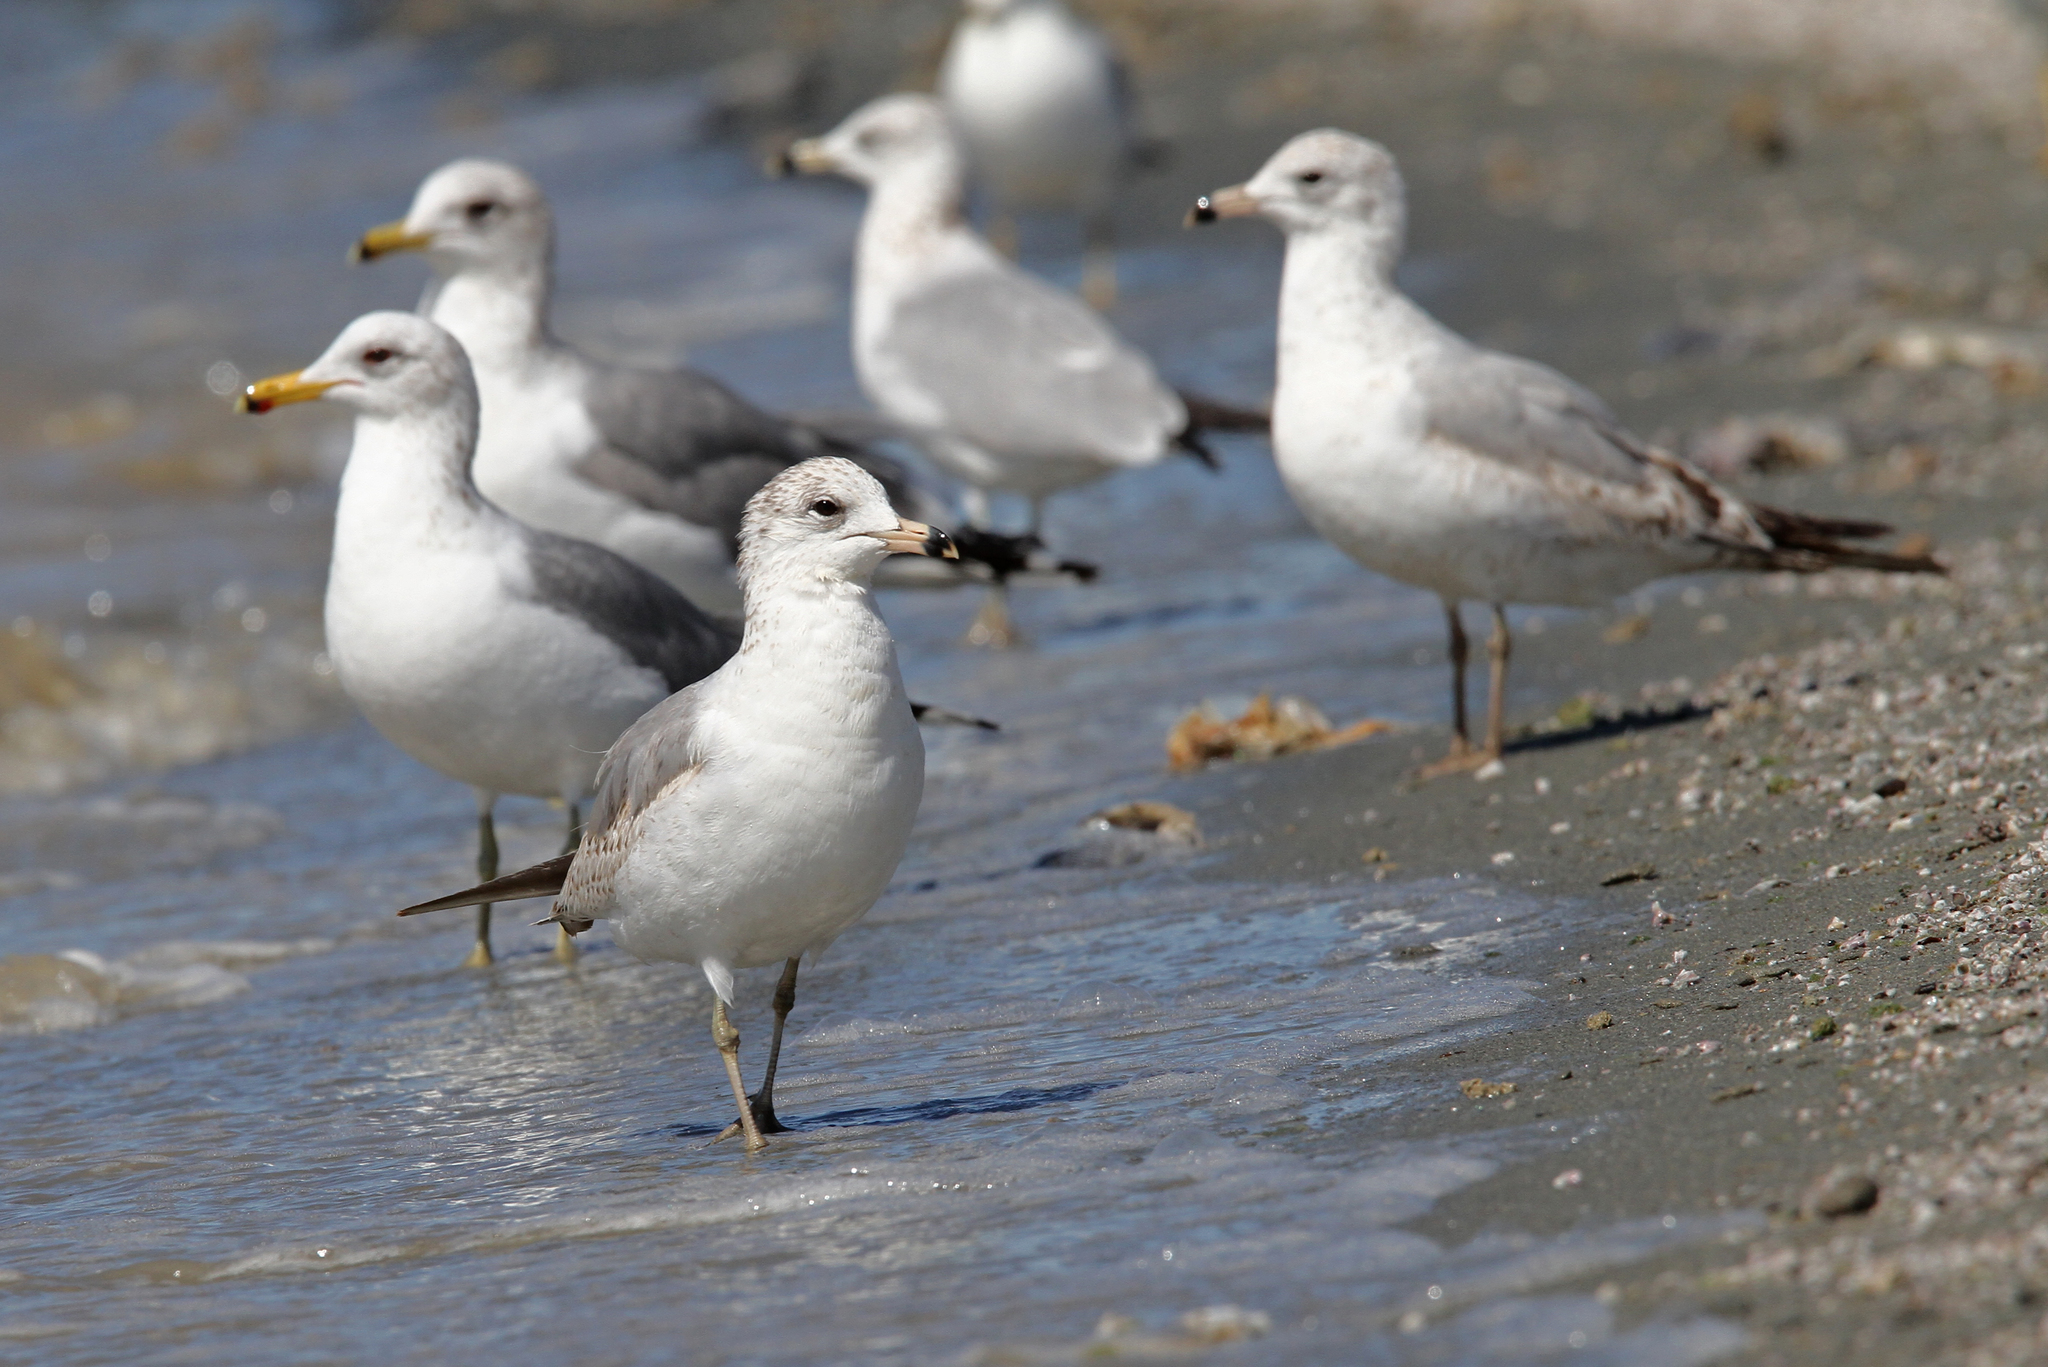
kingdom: Animalia
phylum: Chordata
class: Aves
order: Charadriiformes
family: Laridae
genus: Larus
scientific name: Larus delawarensis
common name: Ring-billed gull
